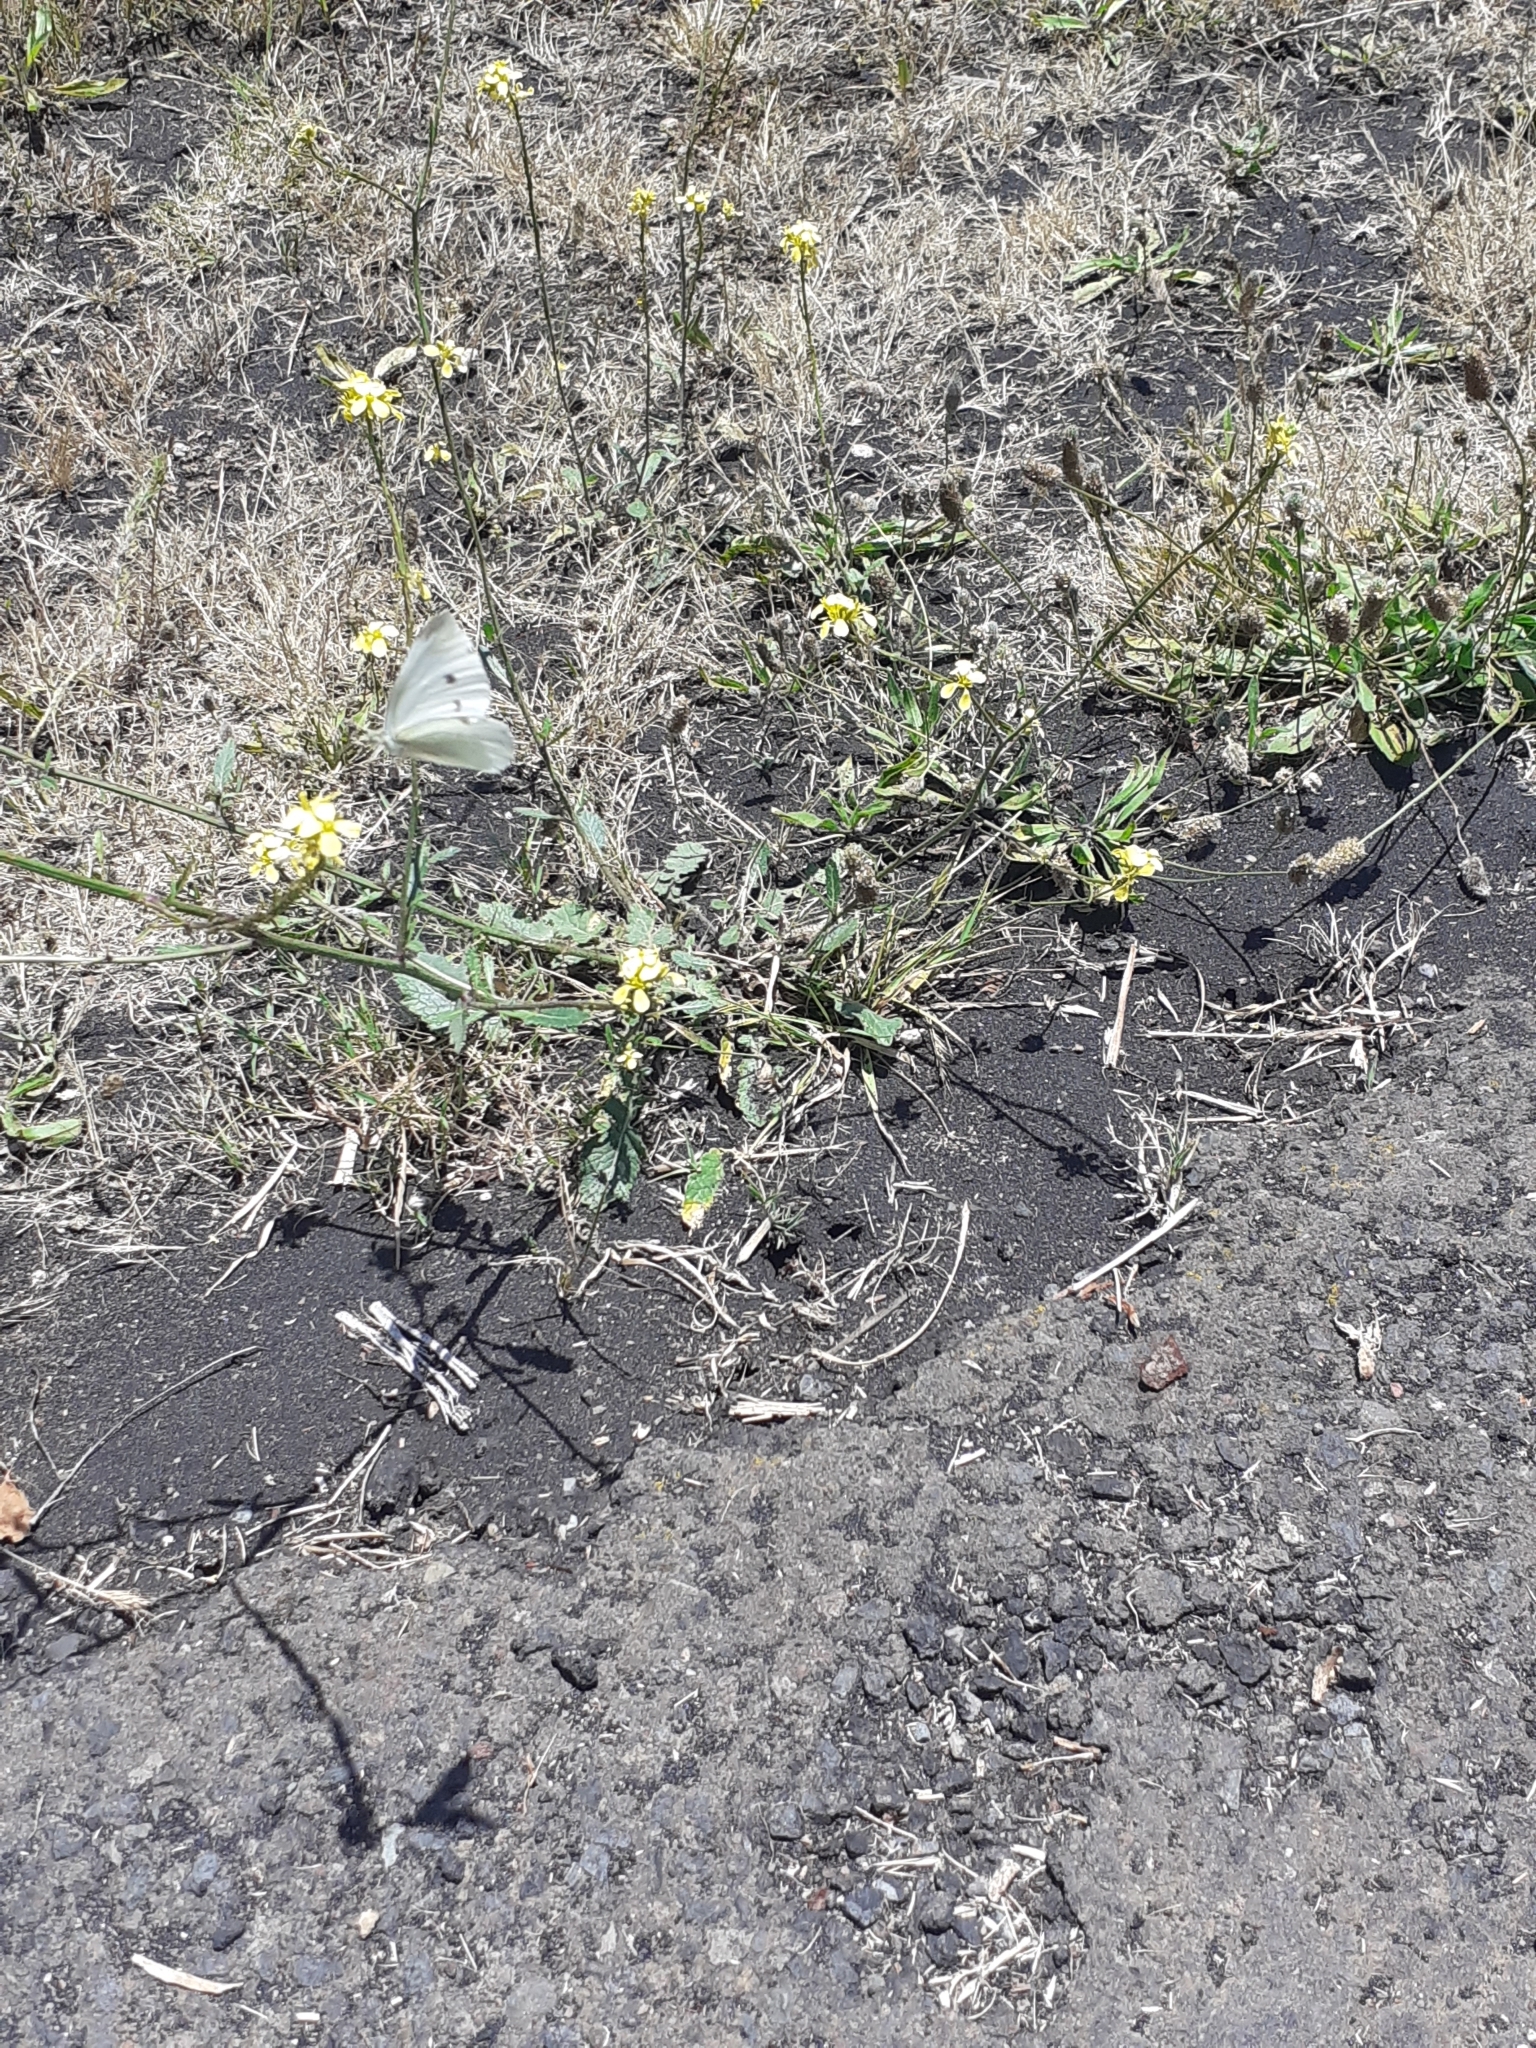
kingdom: Animalia
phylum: Arthropoda
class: Insecta
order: Lepidoptera
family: Pieridae
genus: Pieris
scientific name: Pieris rapae
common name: Small white
